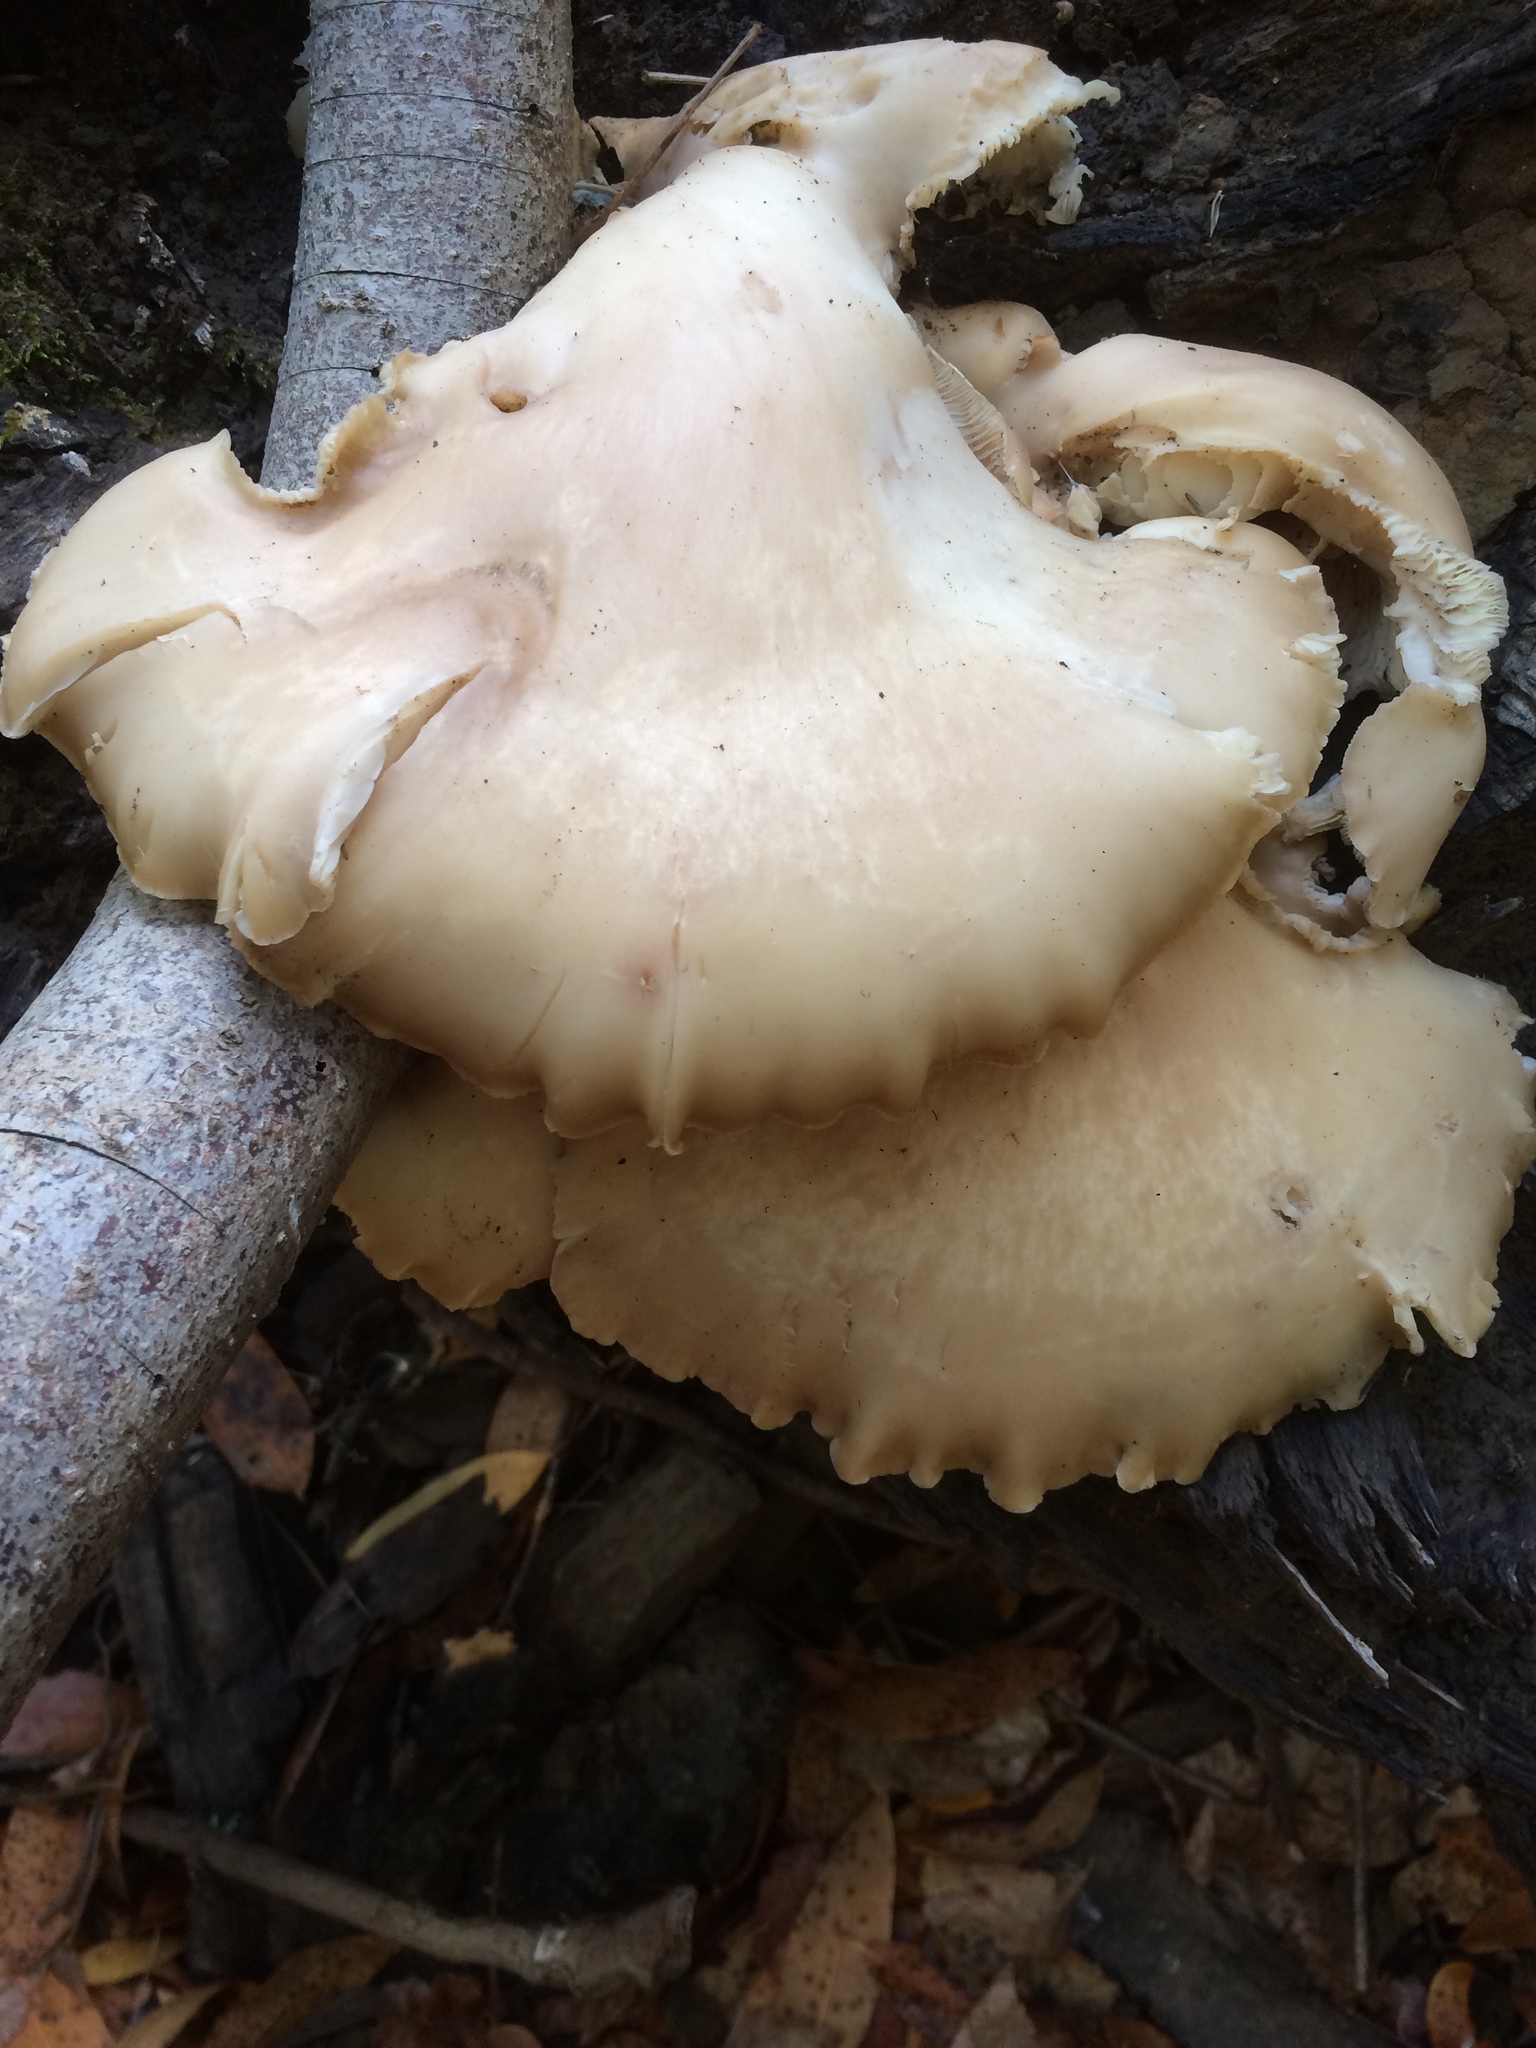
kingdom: Fungi
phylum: Basidiomycota
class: Agaricomycetes
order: Agaricales
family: Pleurotaceae
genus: Pleurotus
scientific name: Pleurotus pulmonarius
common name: Pale oyster
